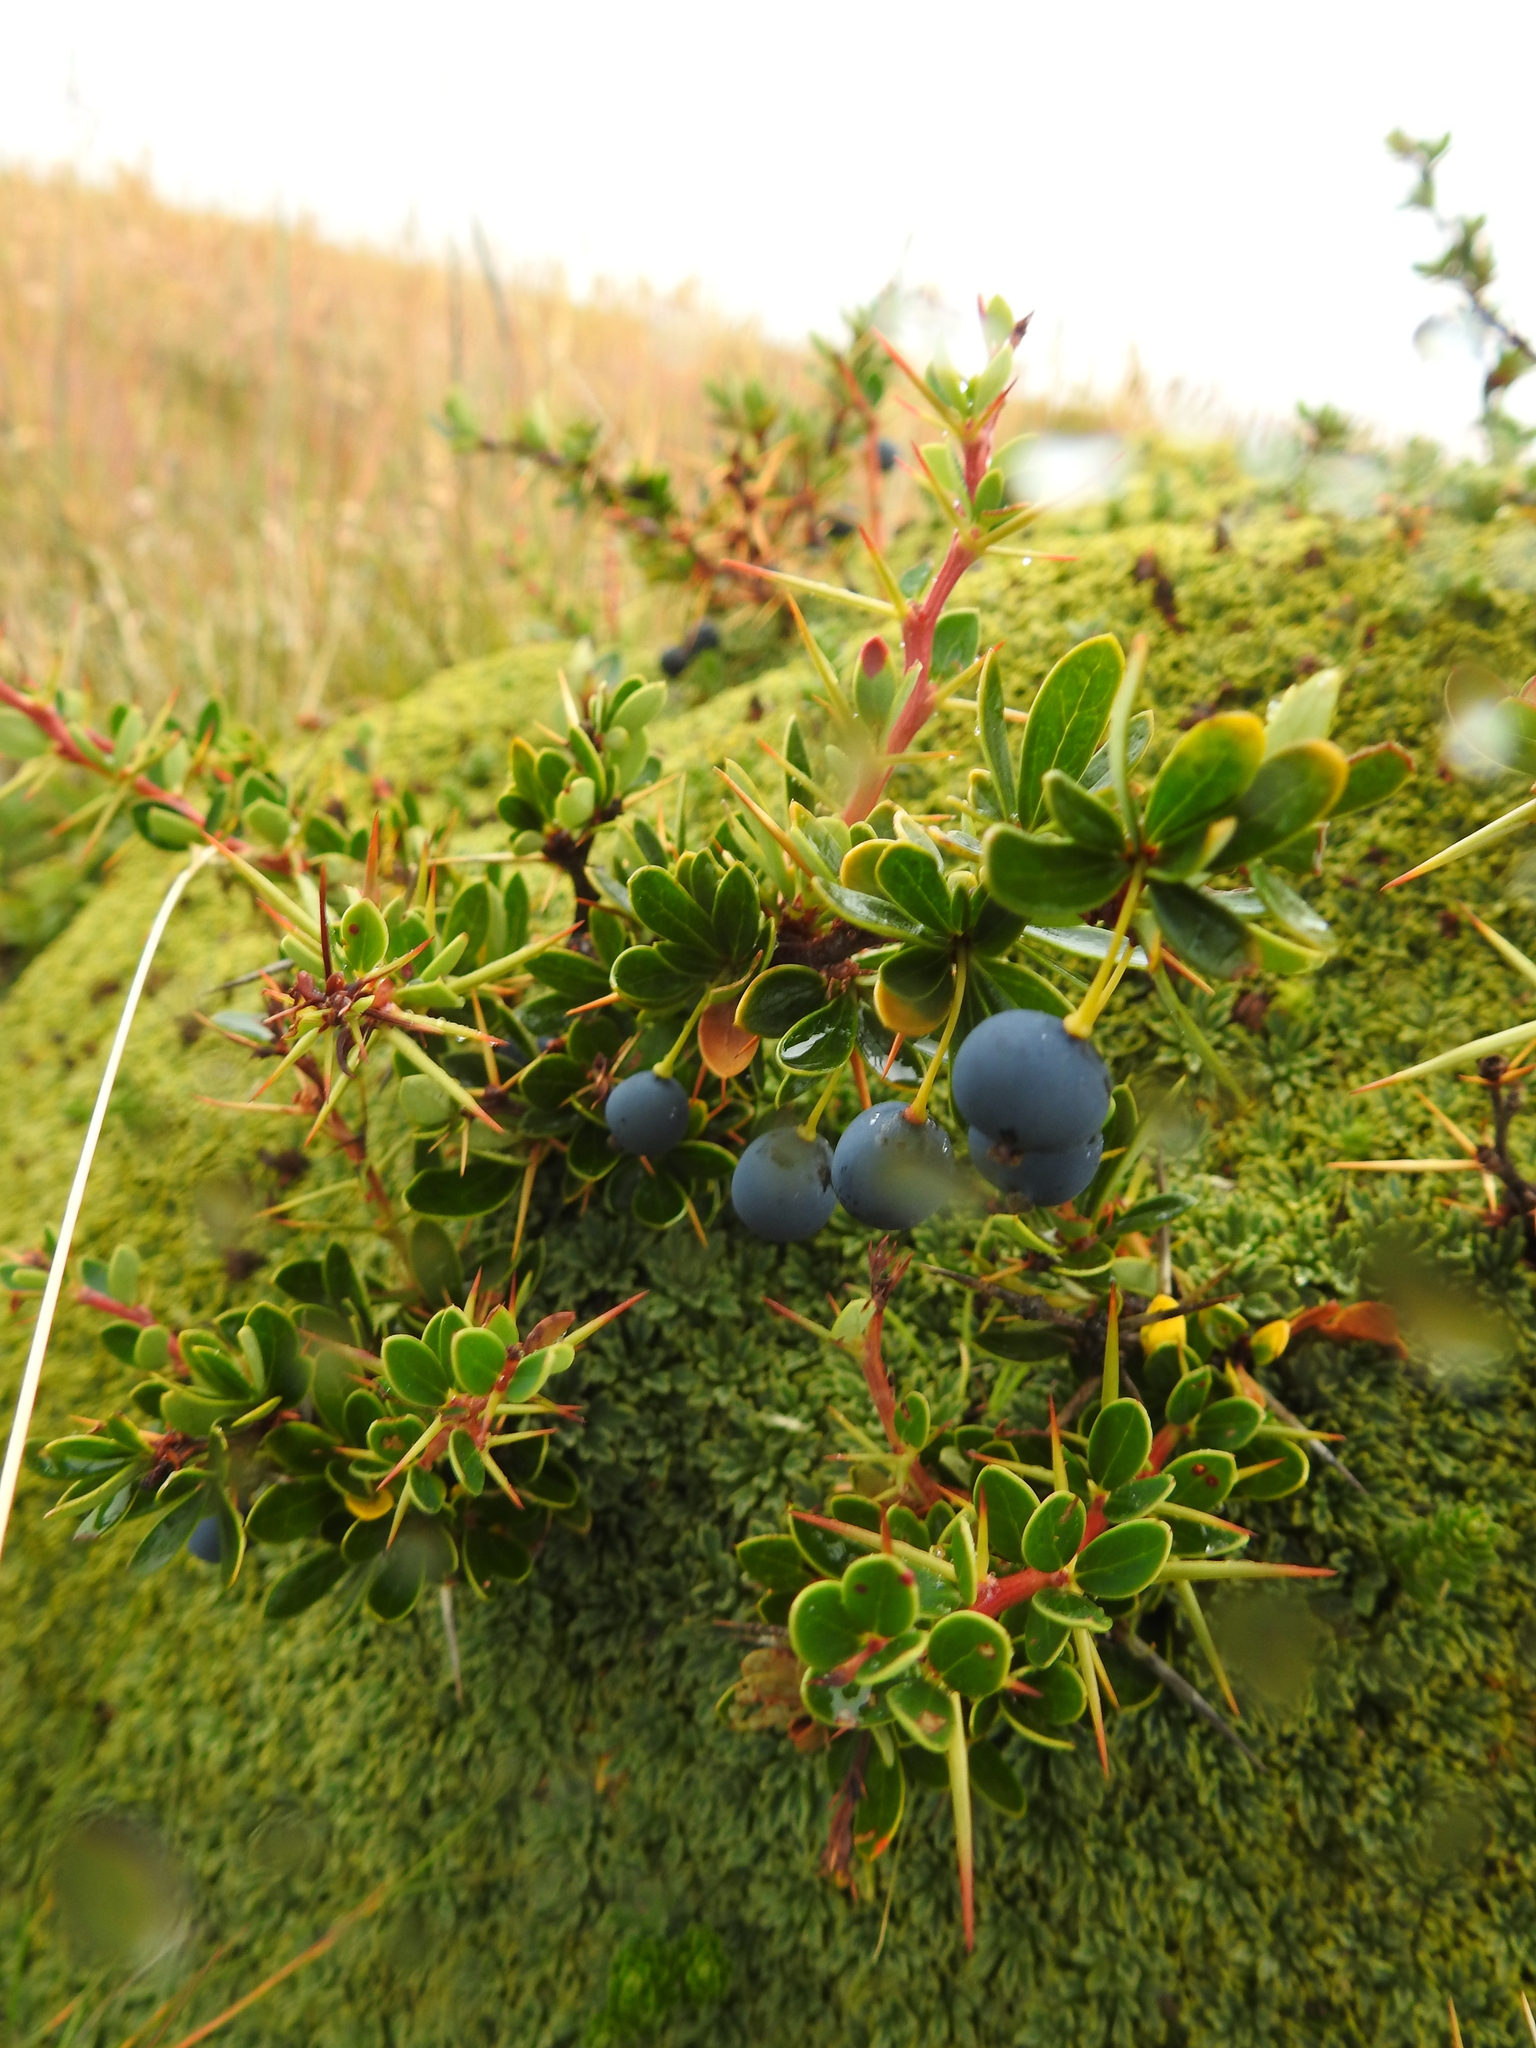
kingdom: Plantae
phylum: Tracheophyta
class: Magnoliopsida
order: Ranunculales
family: Berberidaceae
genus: Berberis
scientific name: Berberis microphylla
